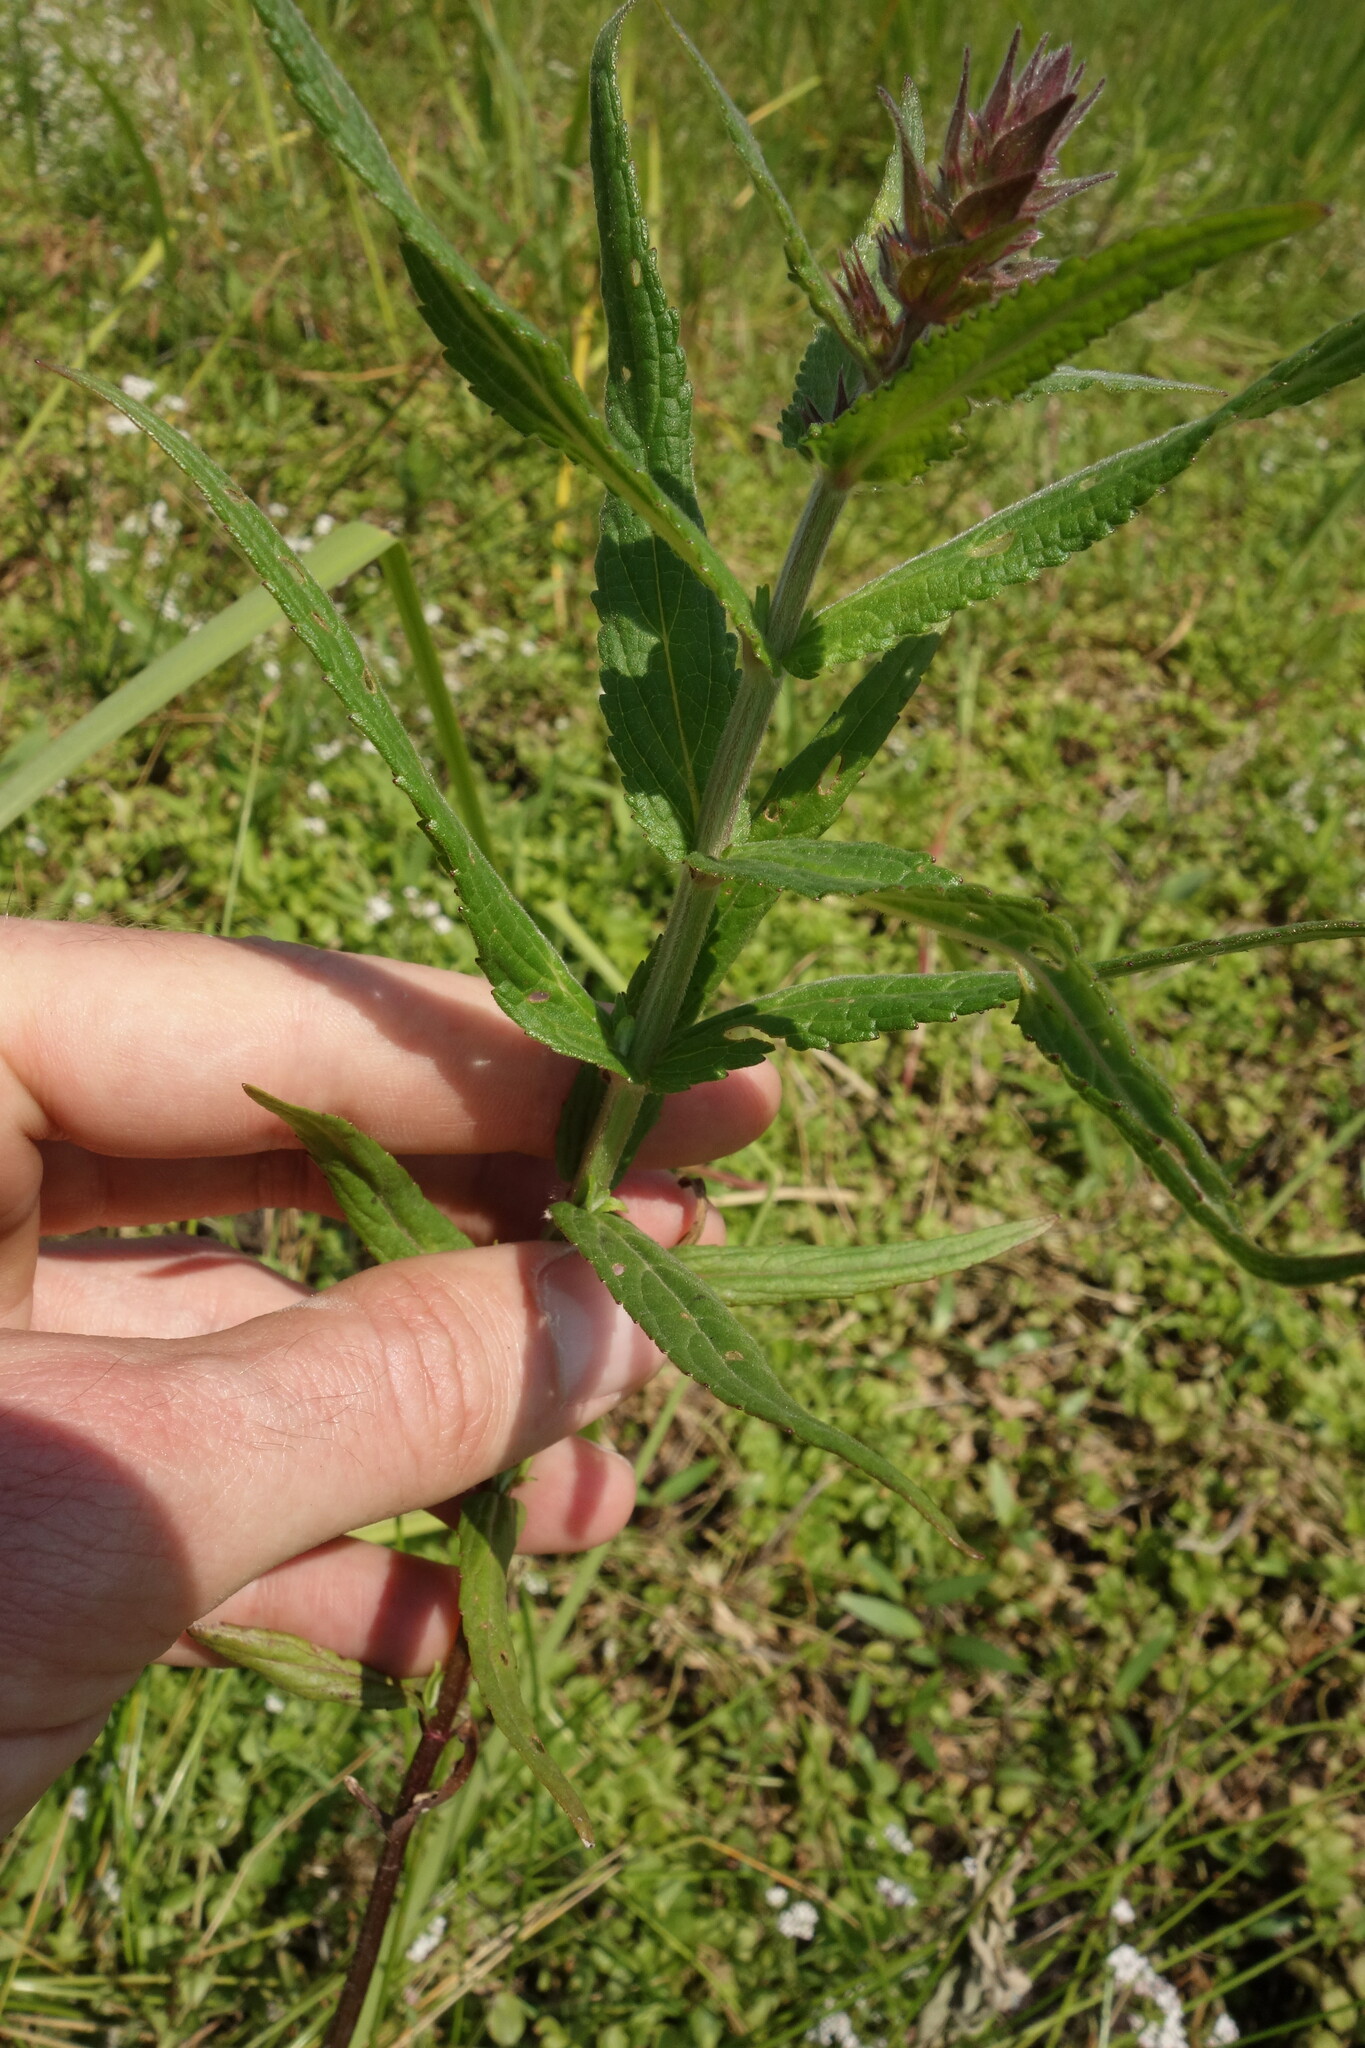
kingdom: Plantae
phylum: Tracheophyta
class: Magnoliopsida
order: Lamiales
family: Lamiaceae
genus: Stachys
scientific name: Stachys palustris
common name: Marsh woundwort
